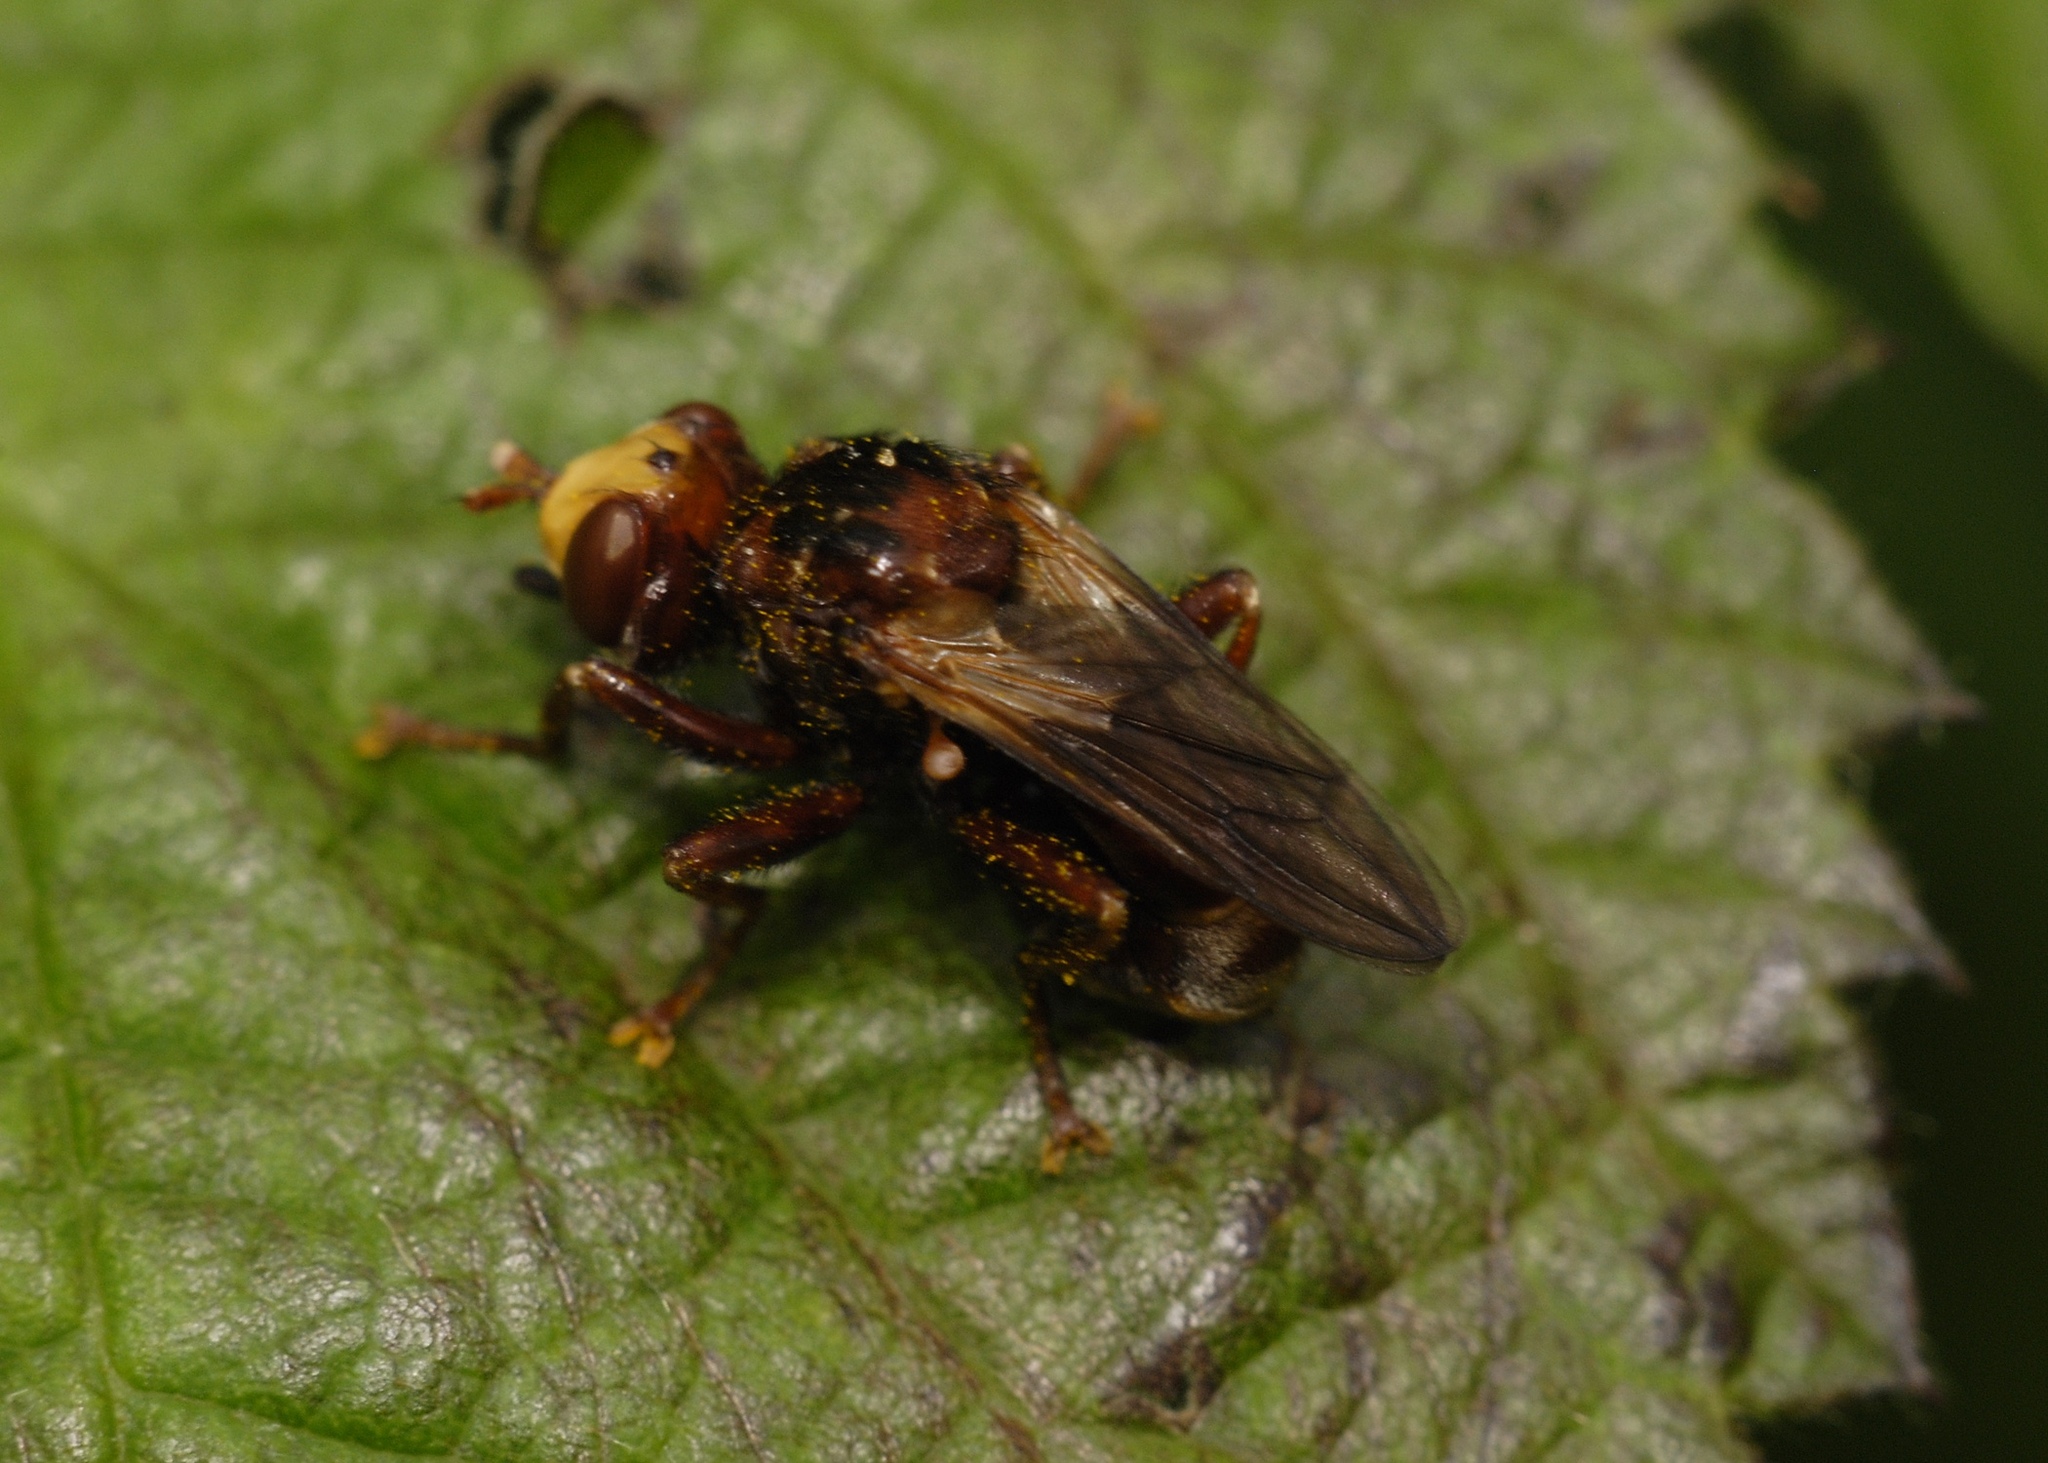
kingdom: Animalia
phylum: Arthropoda
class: Insecta
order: Diptera
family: Conopidae
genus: Sicus
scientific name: Sicus ferrugineus
